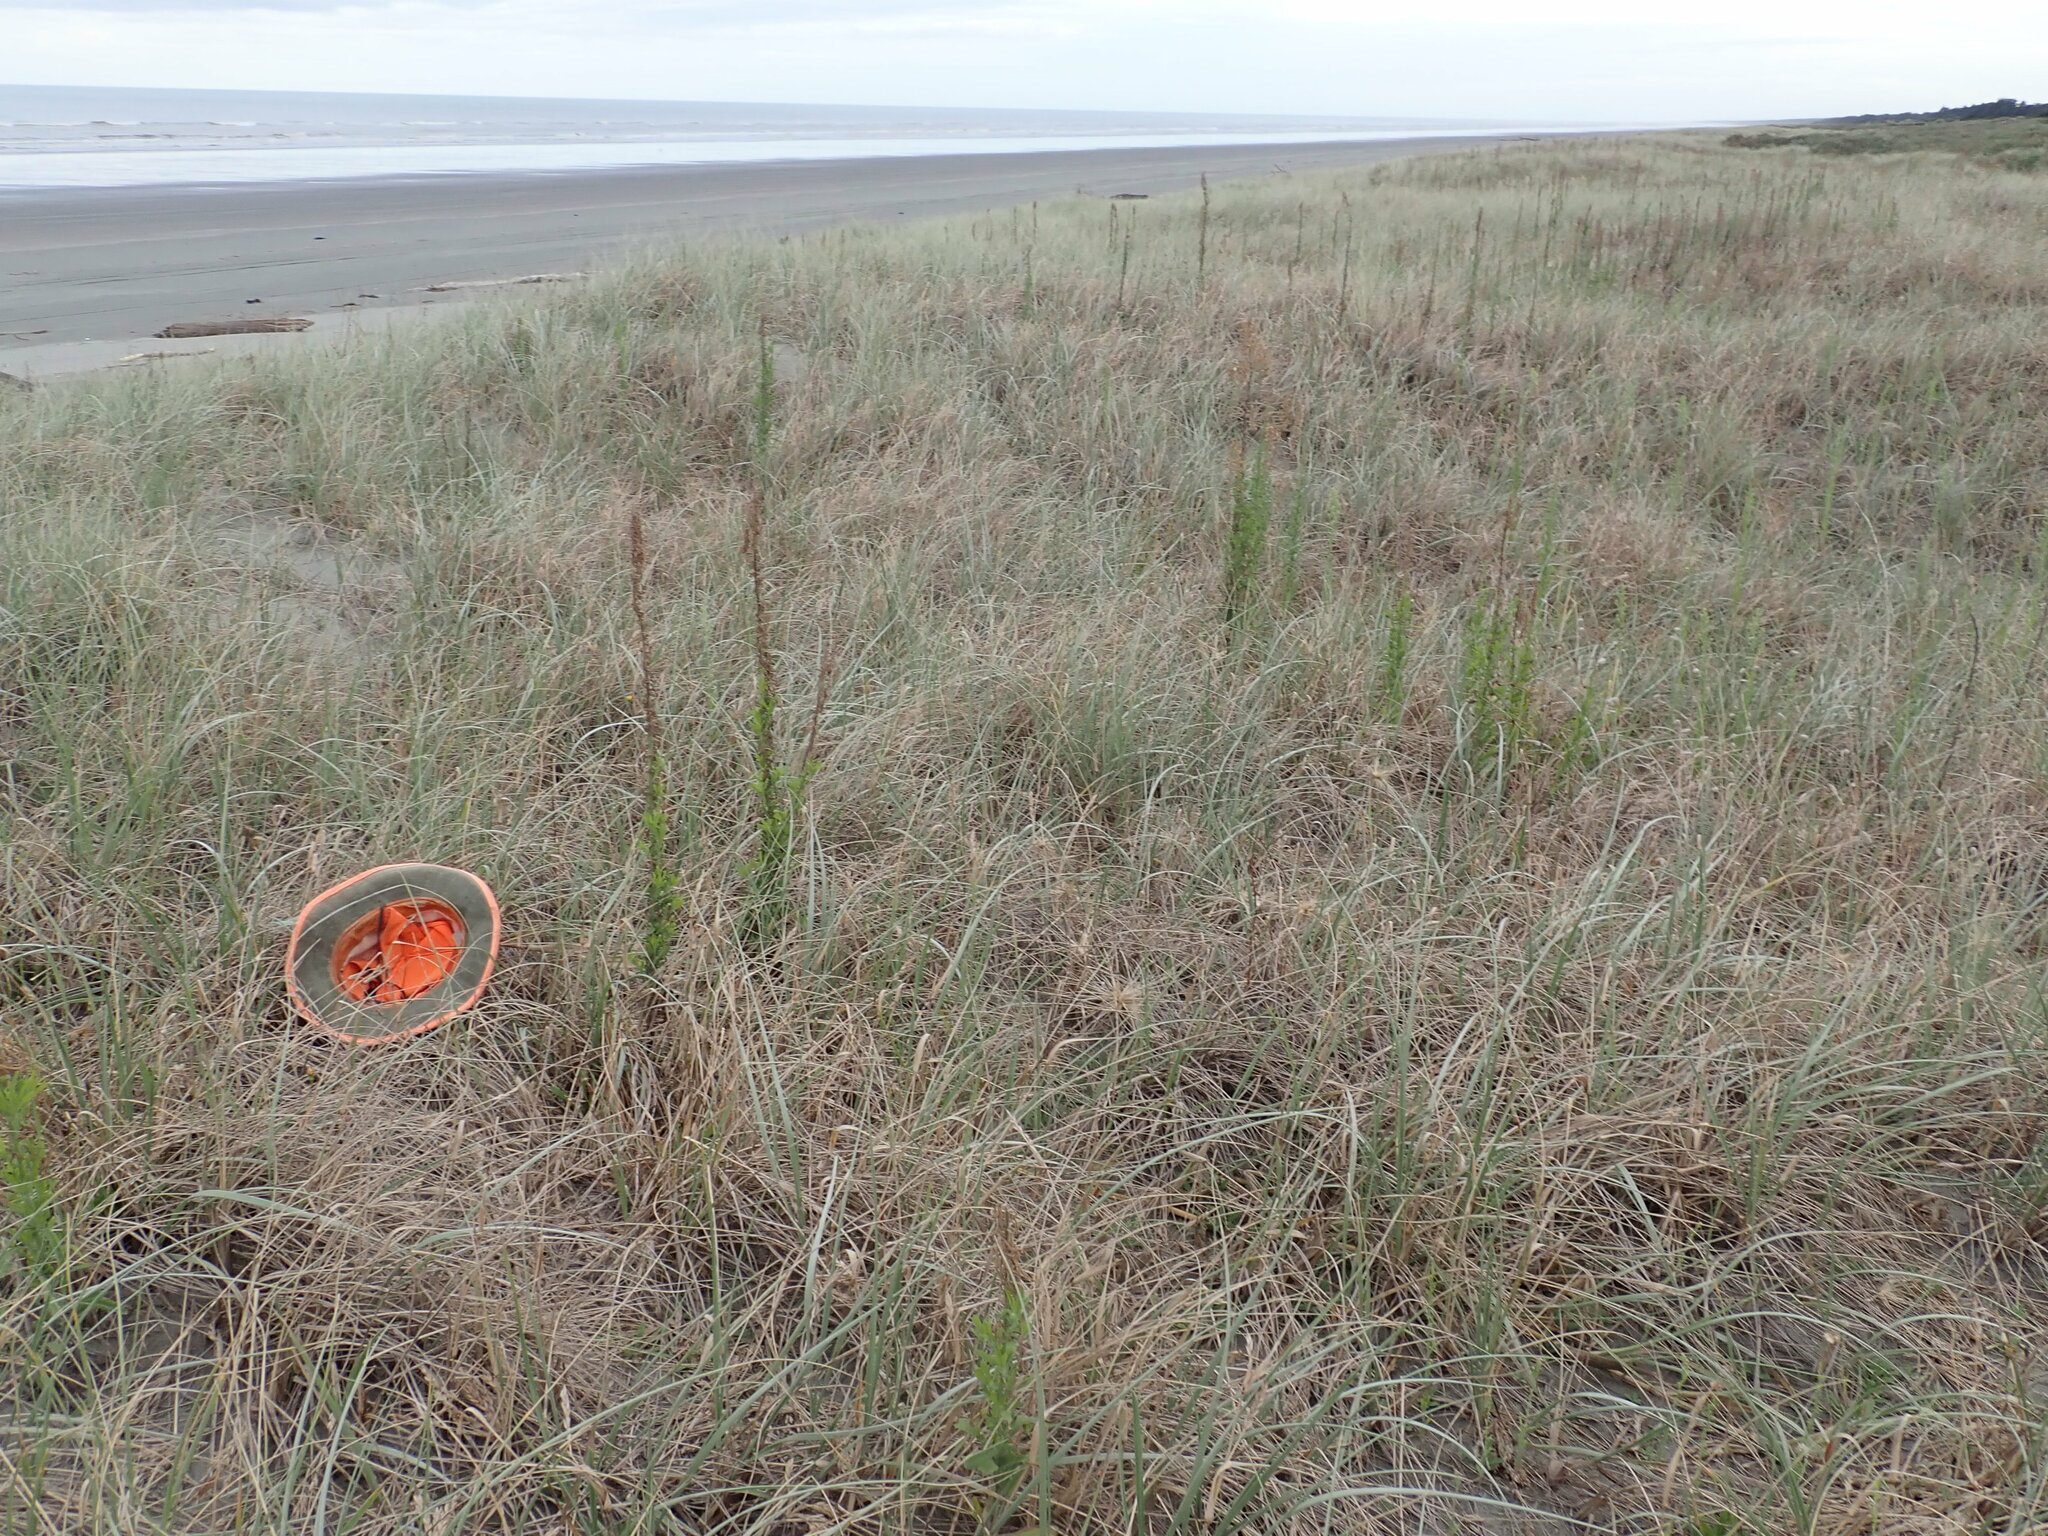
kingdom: Animalia
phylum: Arthropoda
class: Arachnida
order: Araneae
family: Theridiidae
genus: Latrodectus
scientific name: Latrodectus katipo
